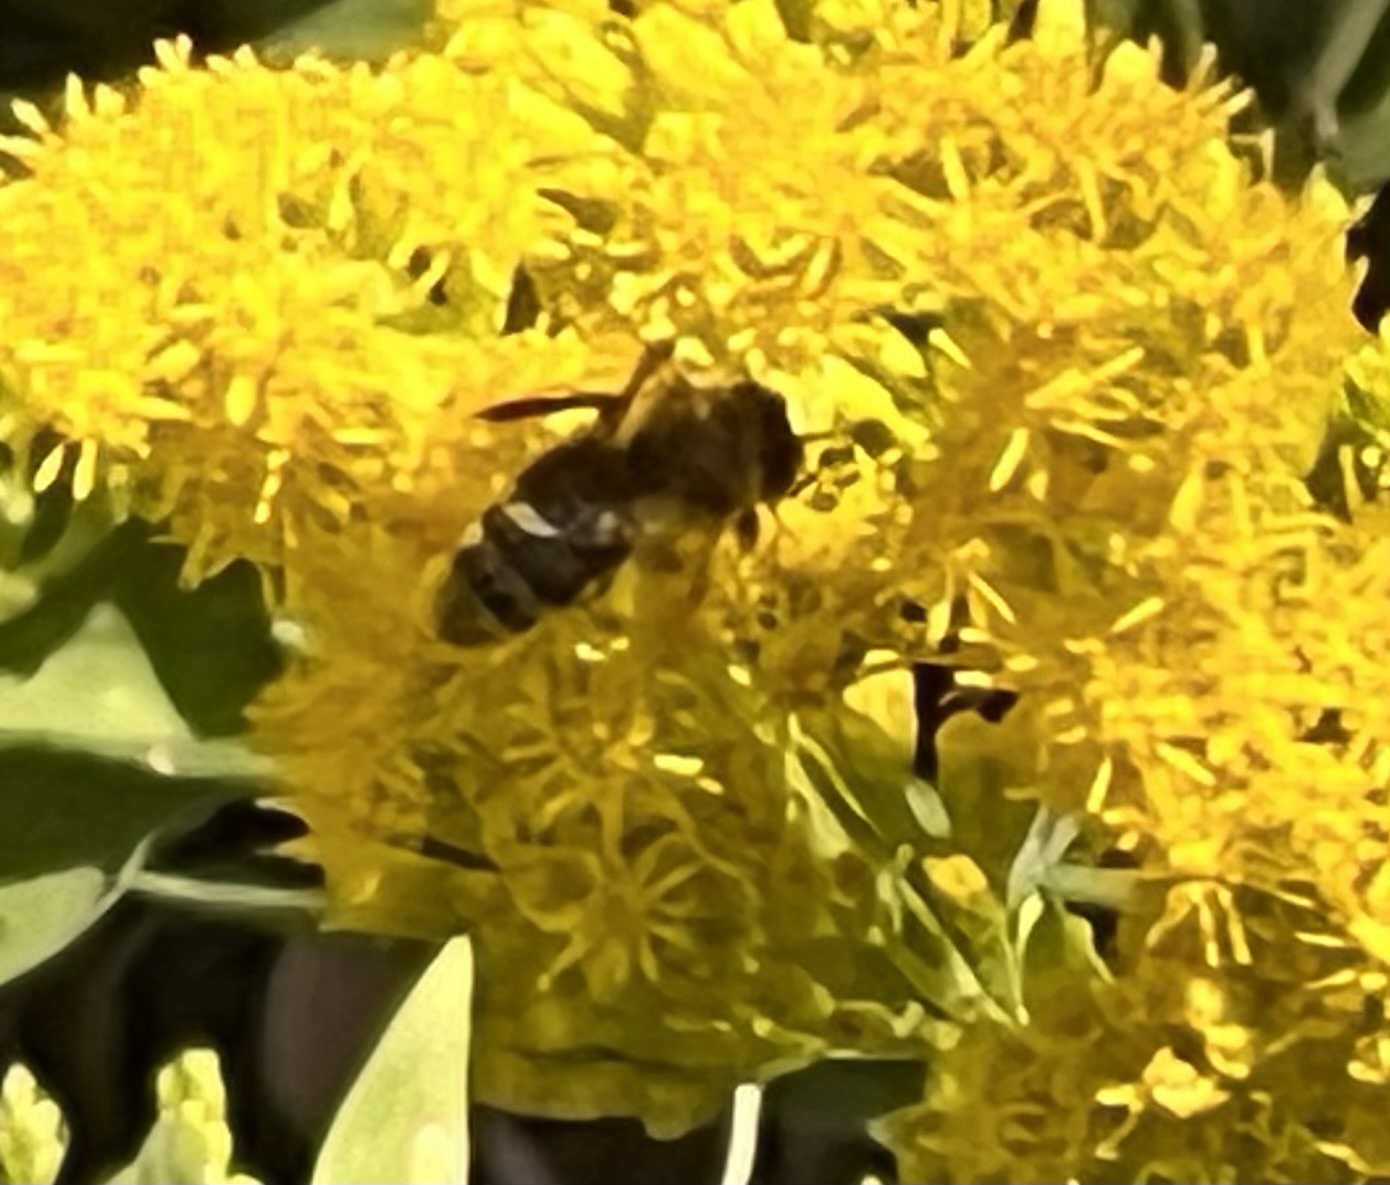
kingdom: Animalia
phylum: Arthropoda
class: Insecta
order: Hymenoptera
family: Apidae
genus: Apis
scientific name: Apis mellifera
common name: Honey bee
